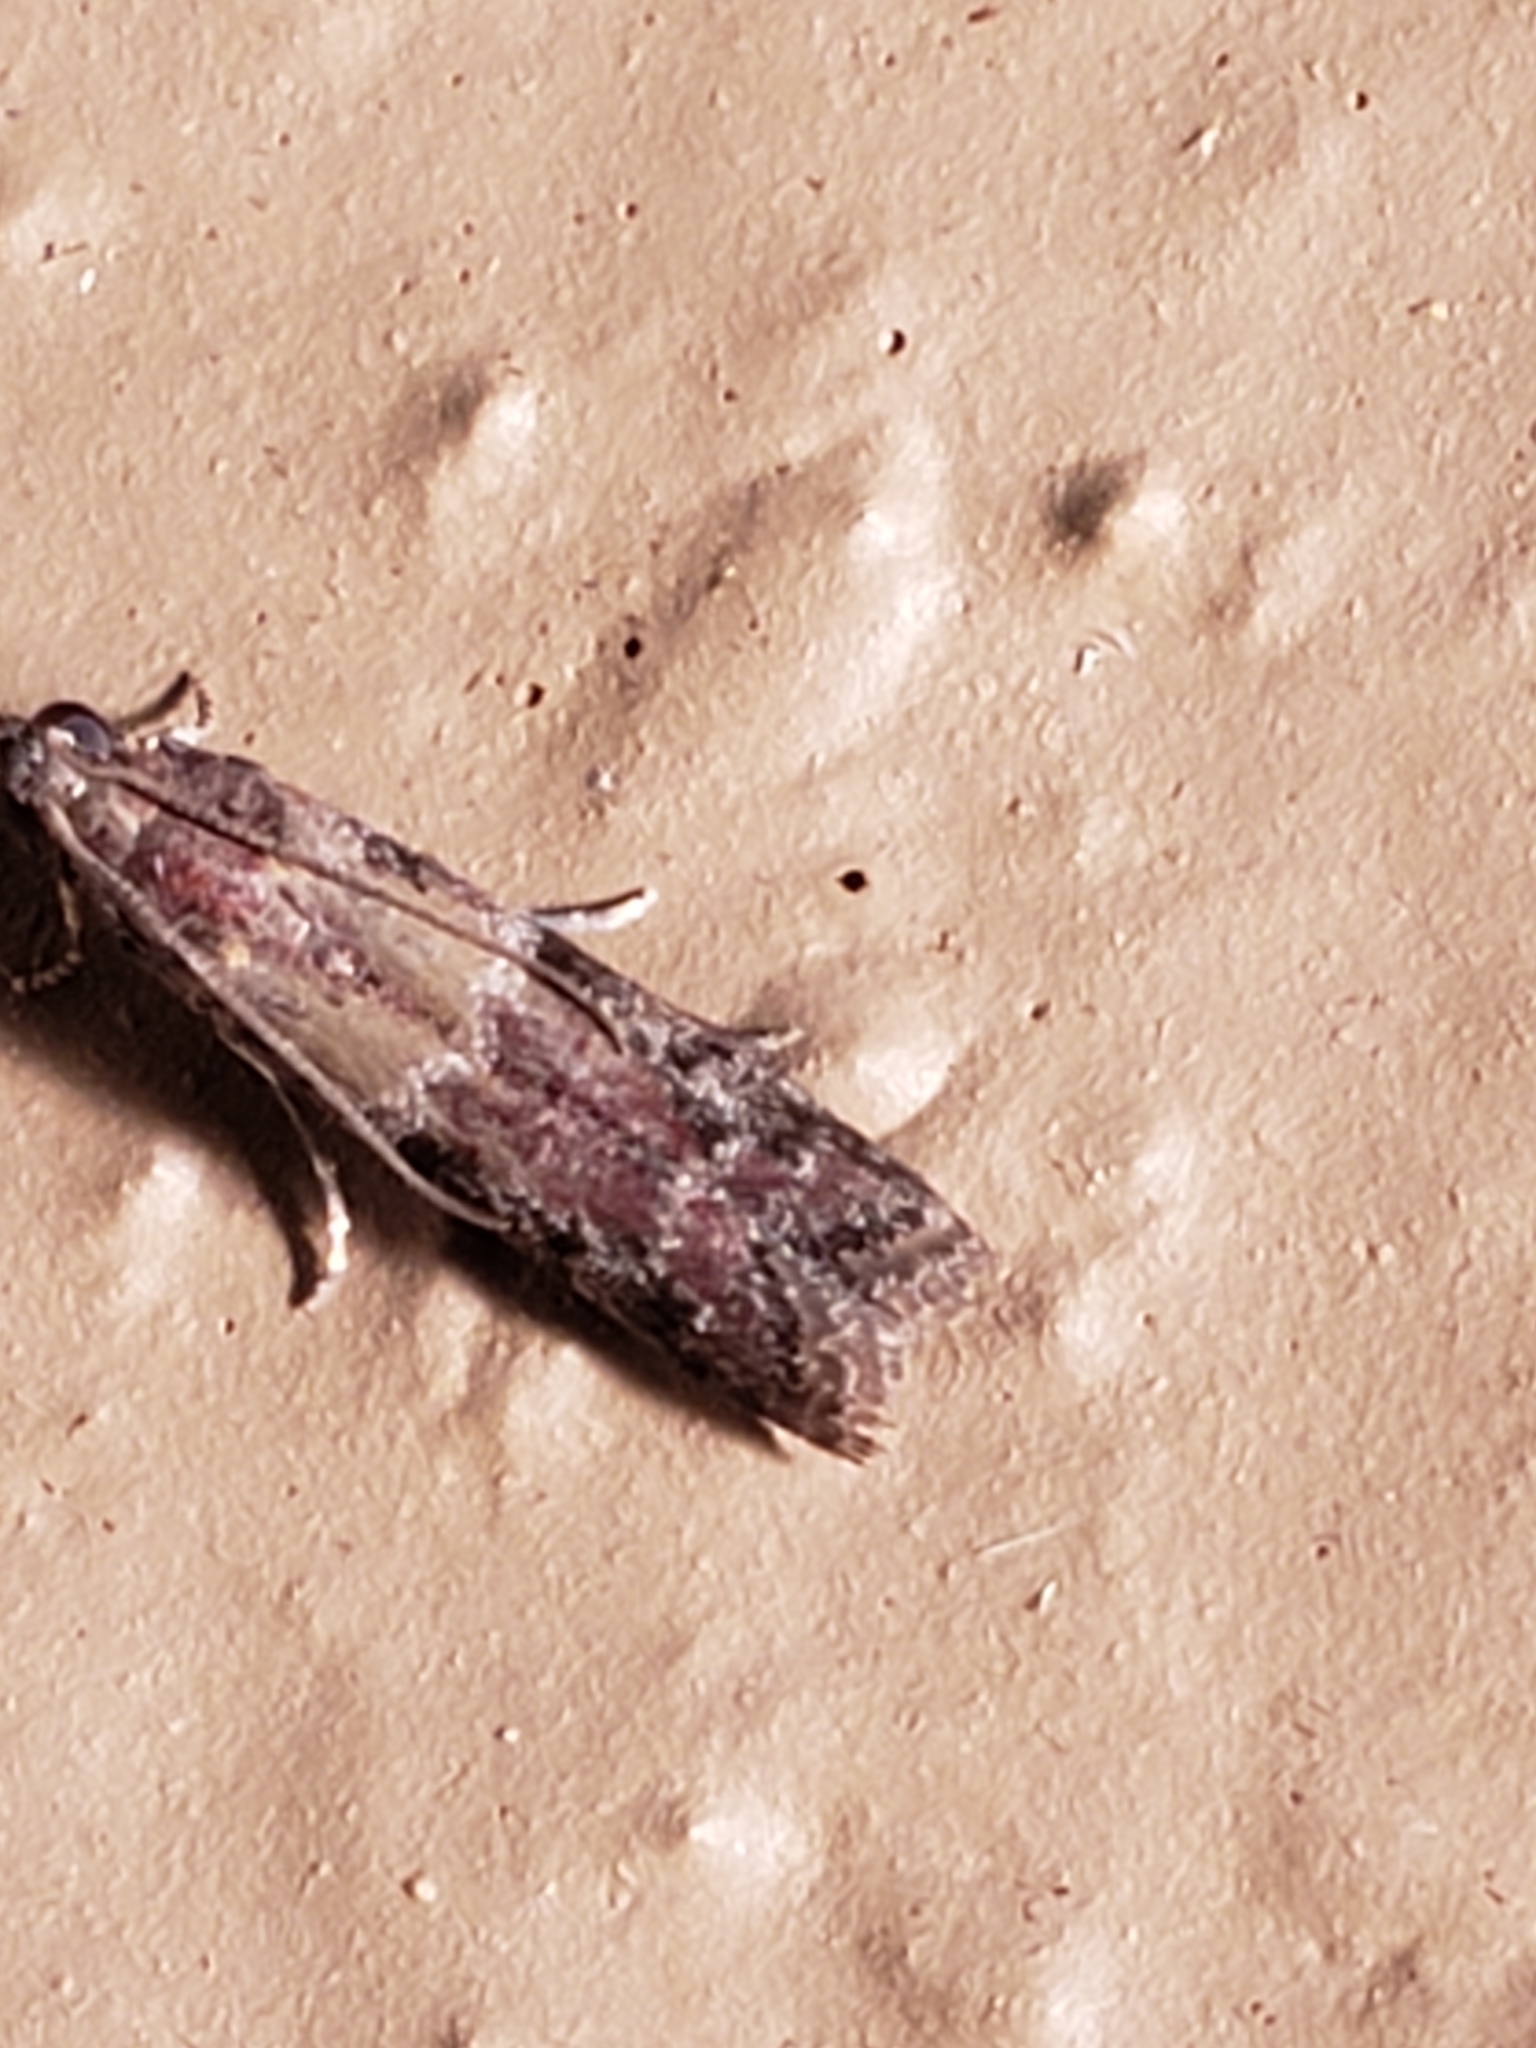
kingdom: Animalia
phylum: Arthropoda
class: Insecta
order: Lepidoptera
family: Pyralidae
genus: Ephestiodes
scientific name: Ephestiodes infimella
